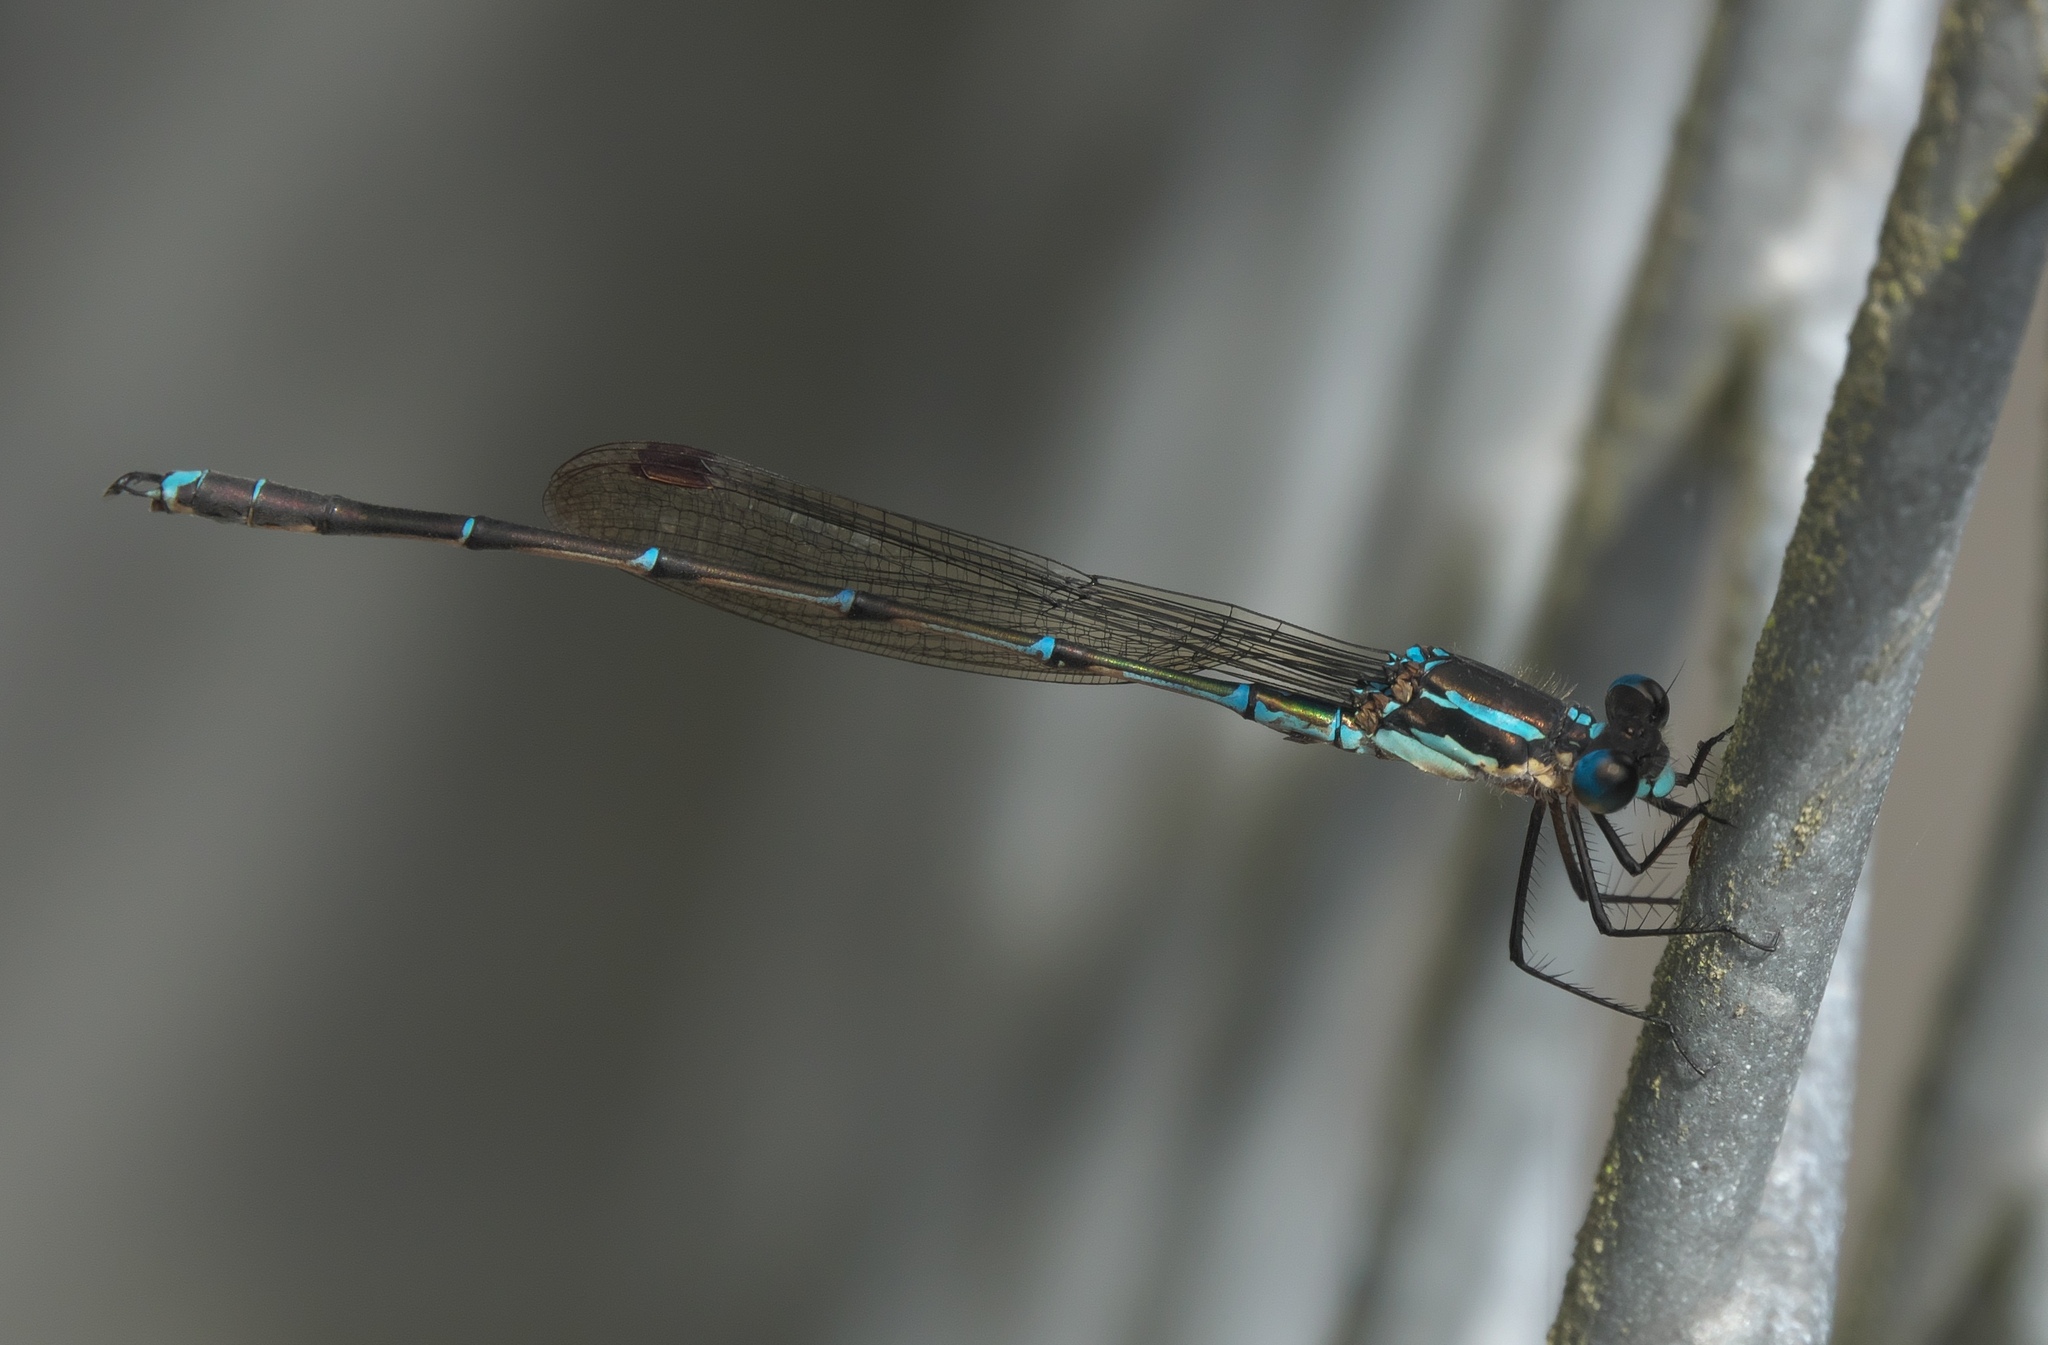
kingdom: Animalia
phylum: Arthropoda
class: Insecta
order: Odonata
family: Lestidae
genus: Austrolestes
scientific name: Austrolestes colensonis
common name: Blue damselfly
